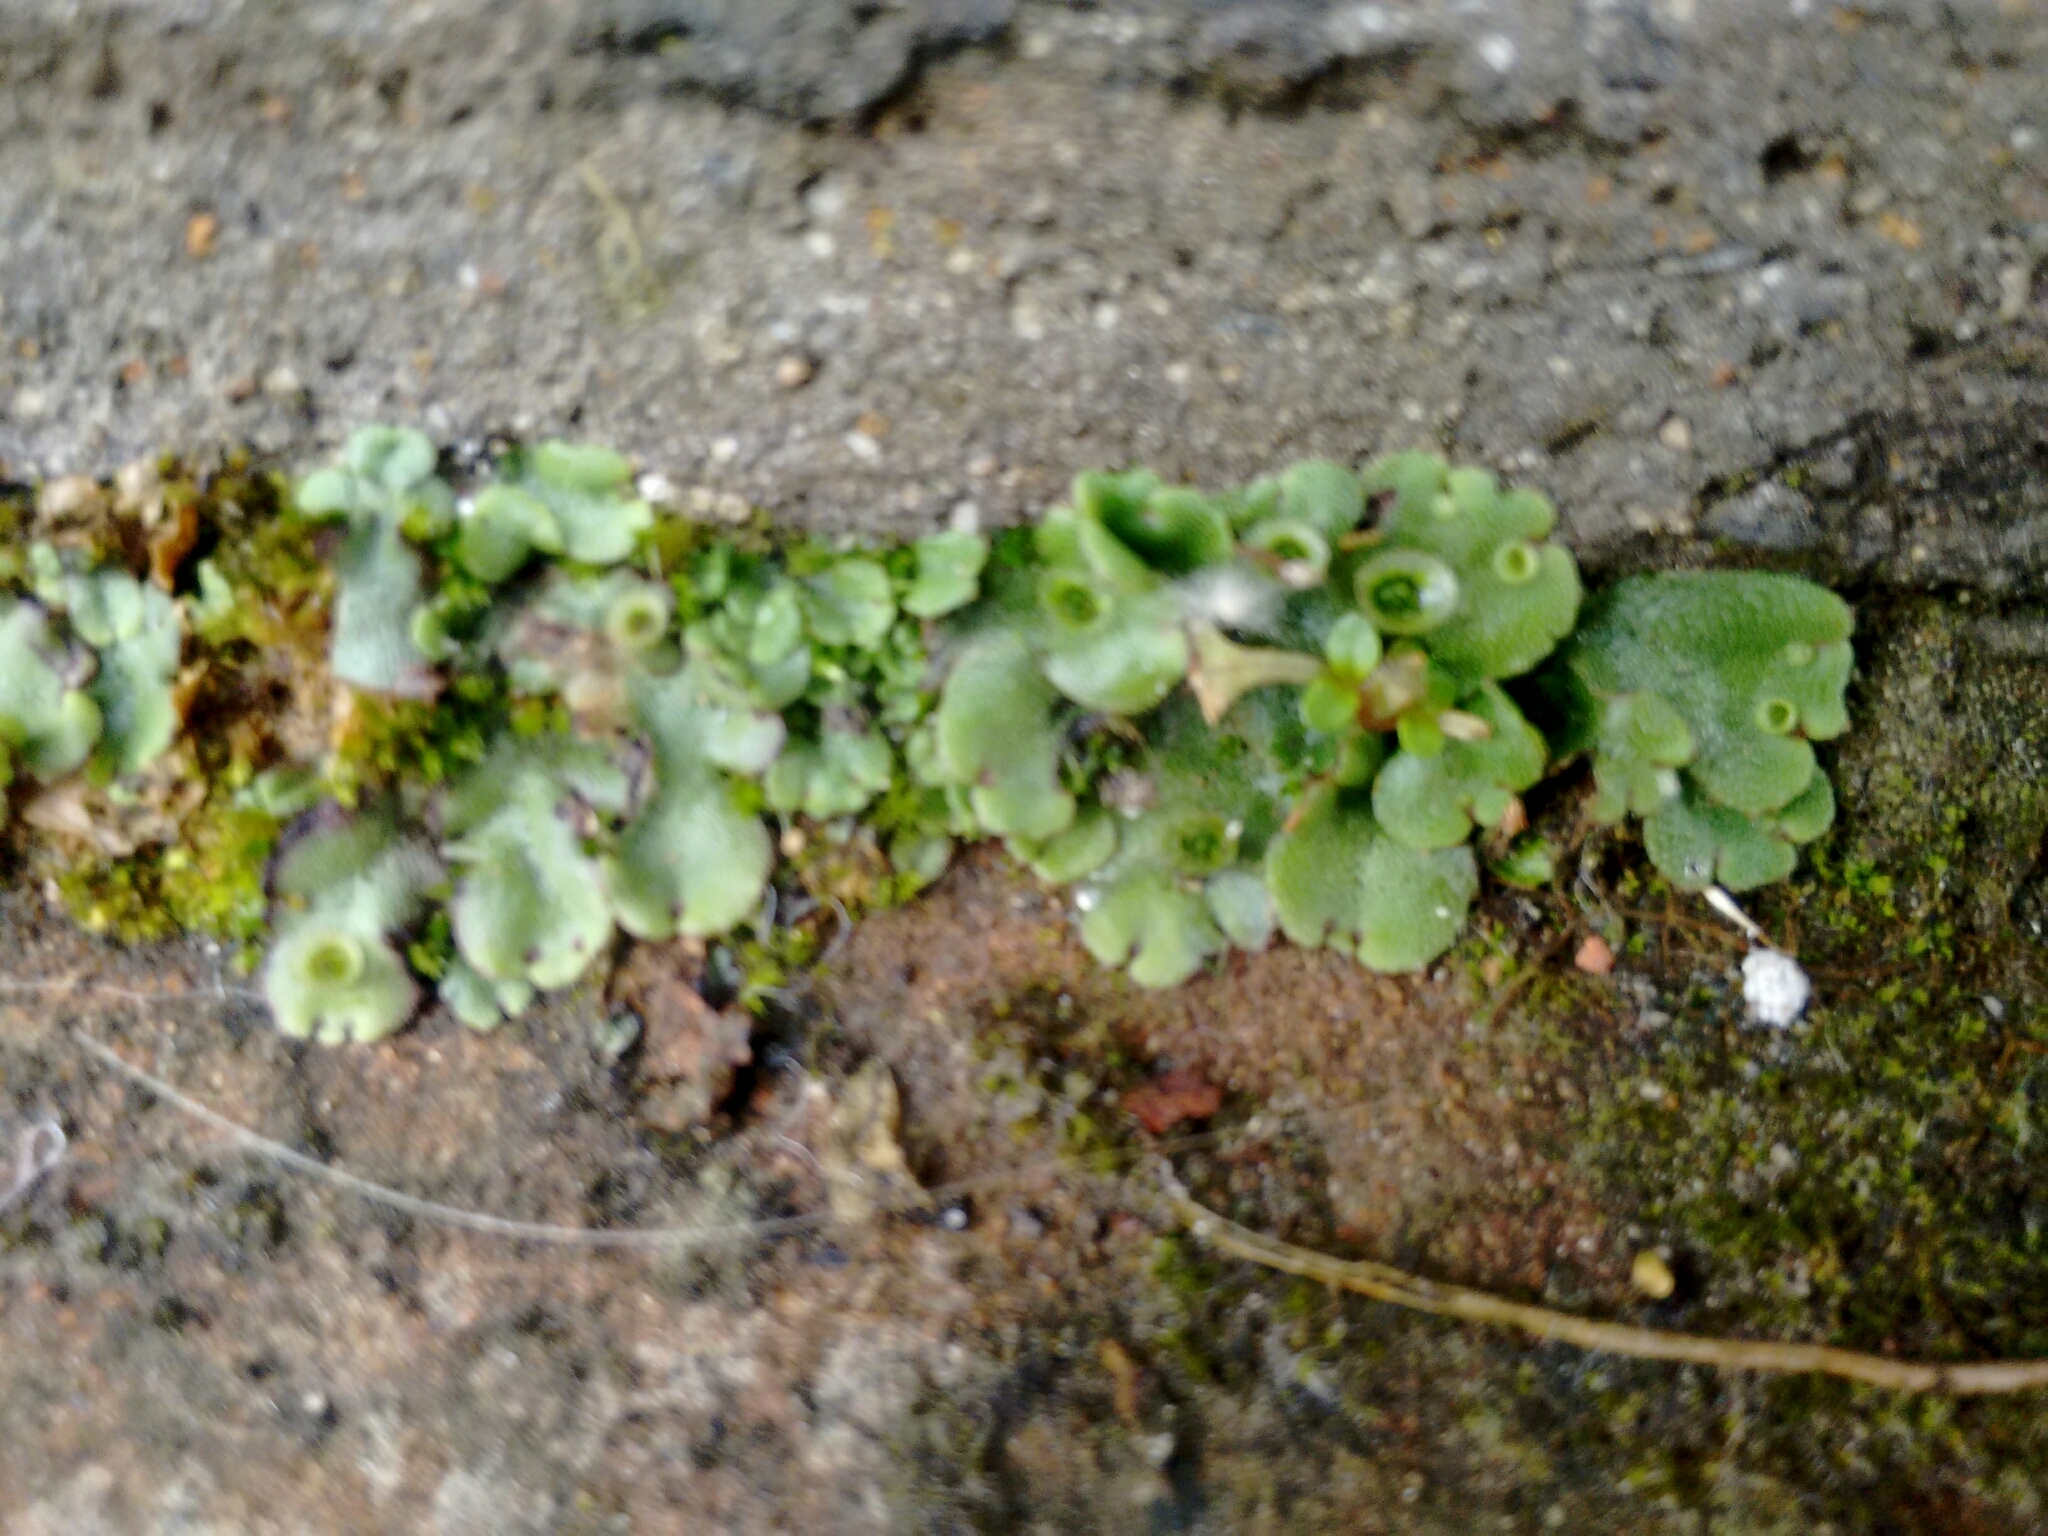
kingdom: Plantae
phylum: Marchantiophyta
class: Marchantiopsida
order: Marchantiales
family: Marchantiaceae
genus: Marchantia
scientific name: Marchantia polymorpha
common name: Common liverwort
